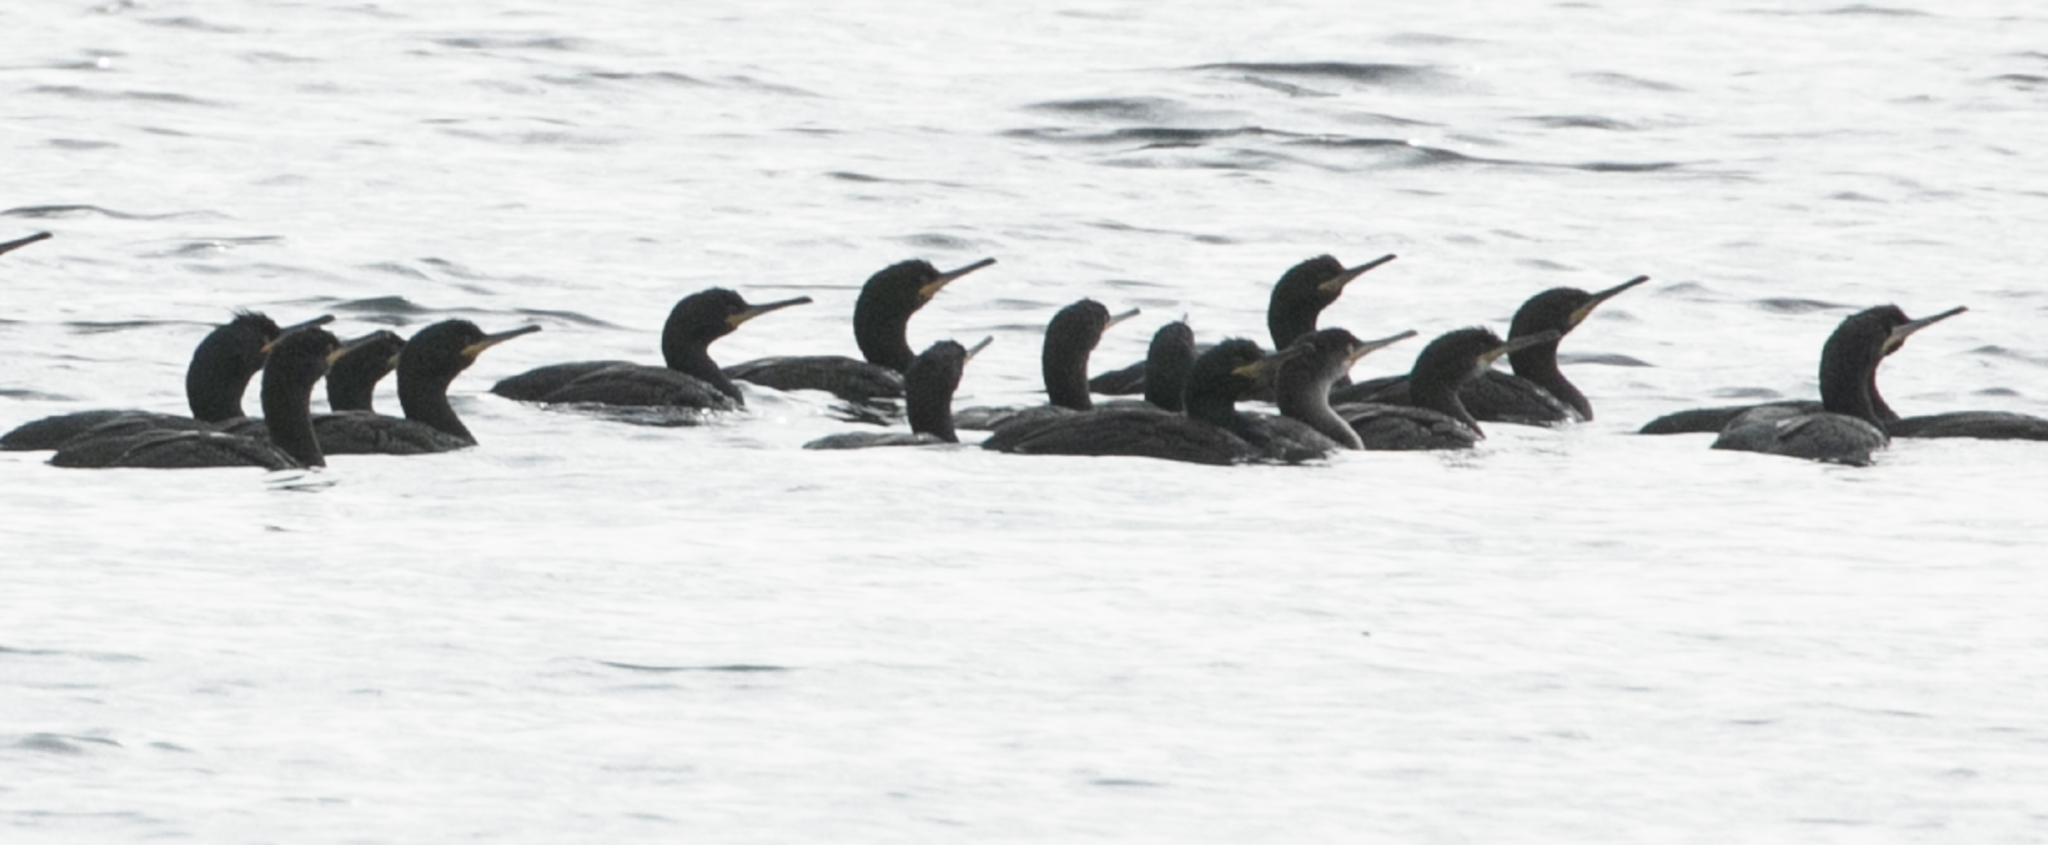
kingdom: Animalia
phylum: Chordata
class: Aves
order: Suliformes
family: Phalacrocoracidae
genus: Phalacrocorax
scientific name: Phalacrocorax aristotelis
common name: European shag
